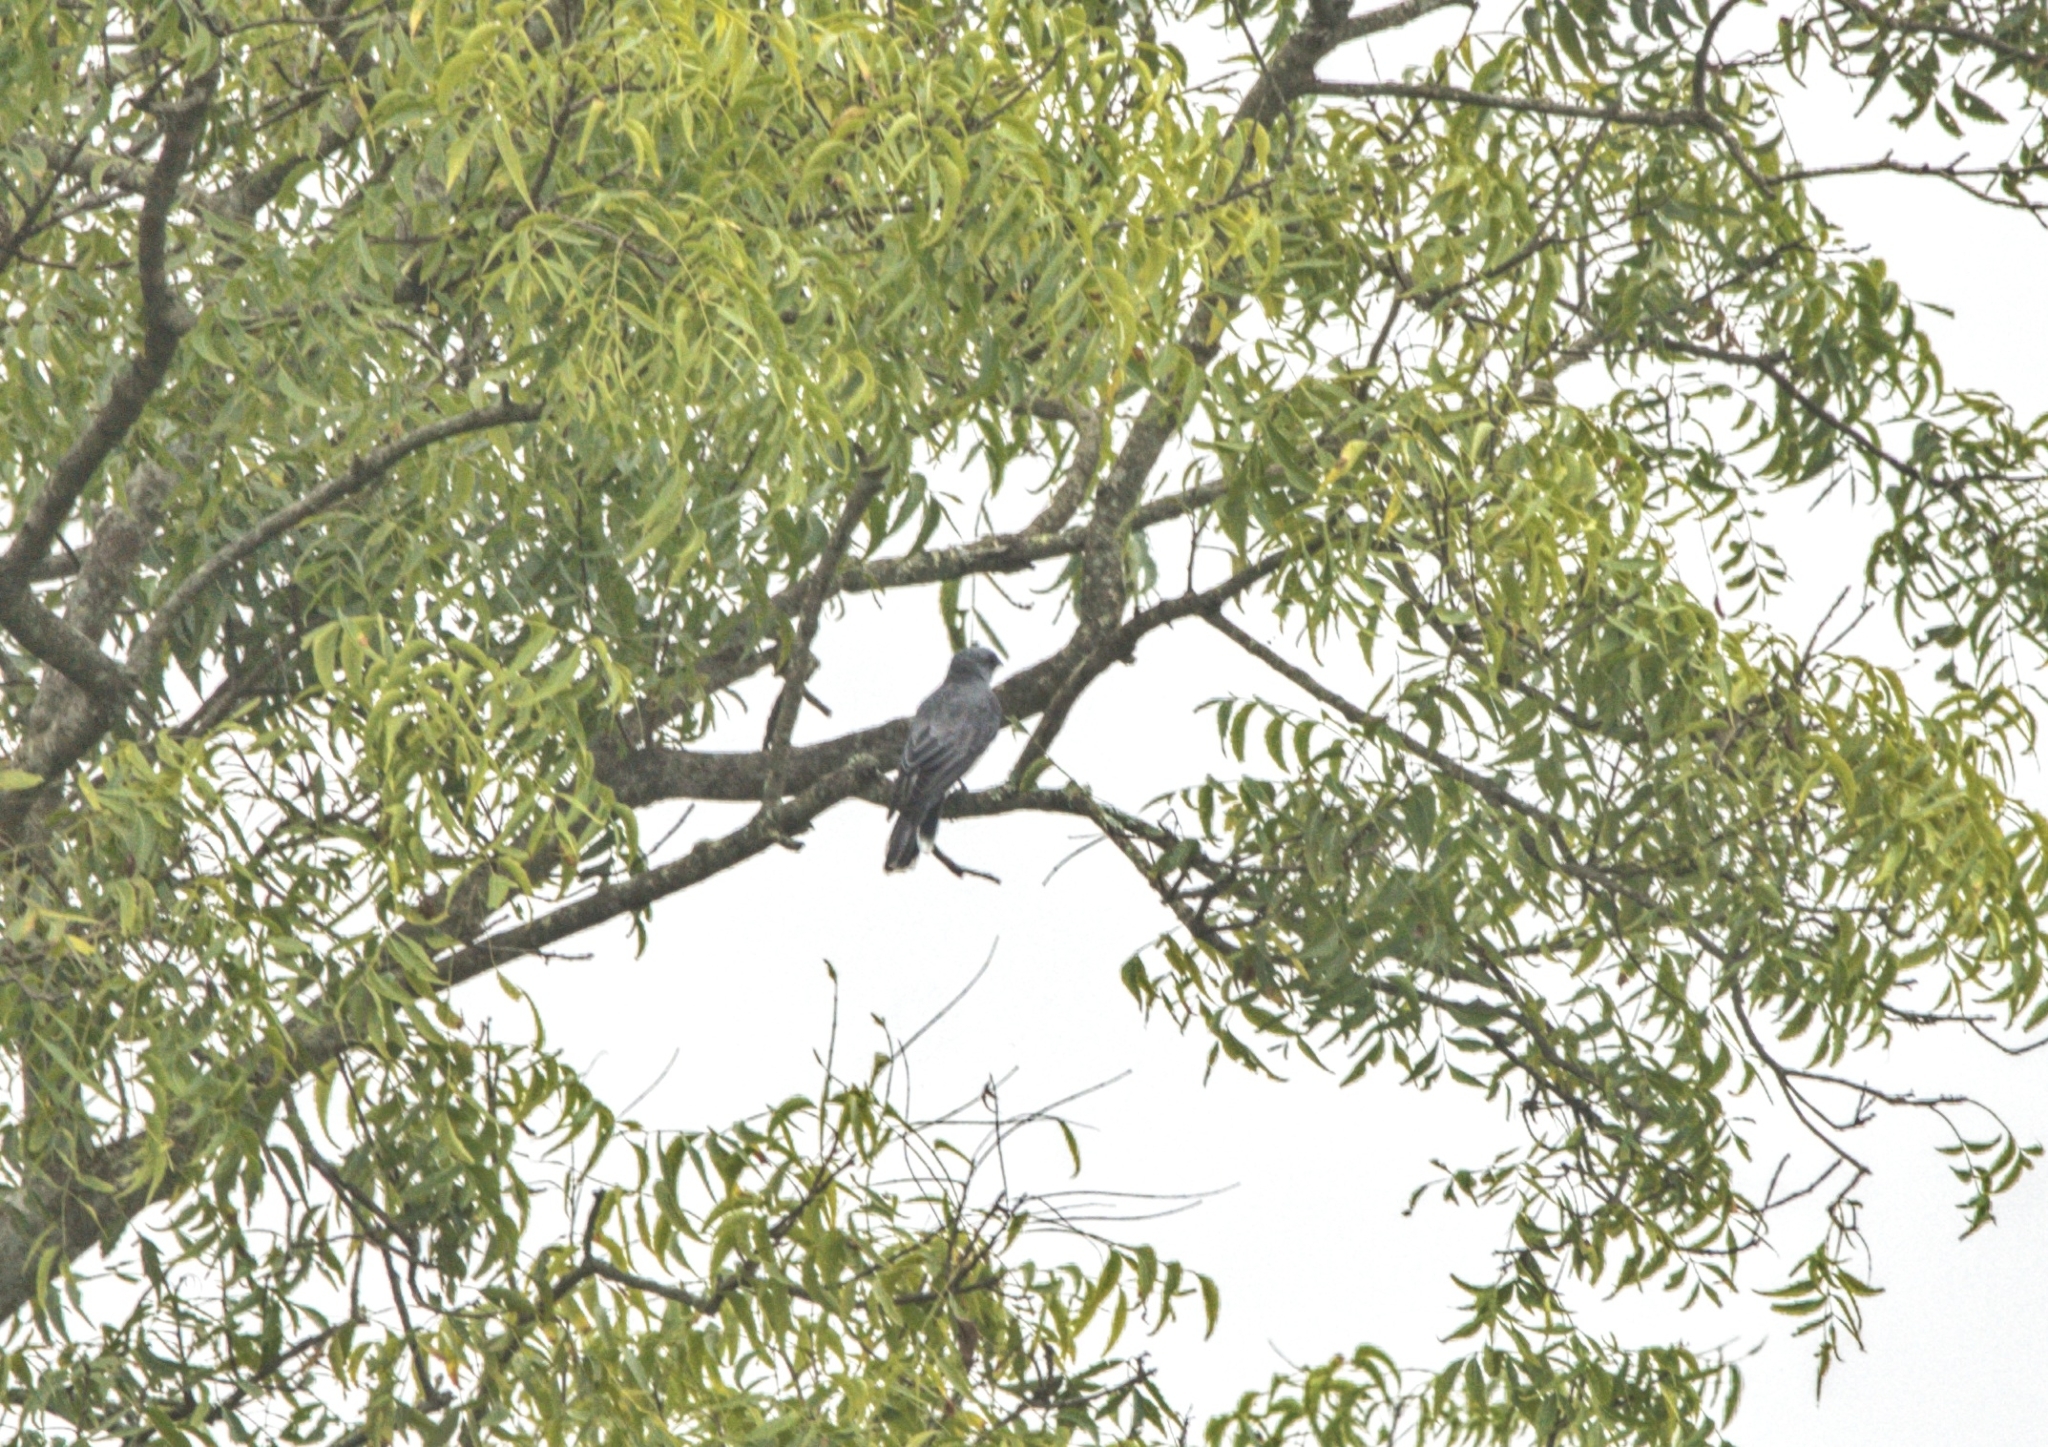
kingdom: Animalia
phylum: Chordata
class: Aves
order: Passeriformes
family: Campephagidae
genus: Coracina
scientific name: Coracina macei
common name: Large cuckooshrike
